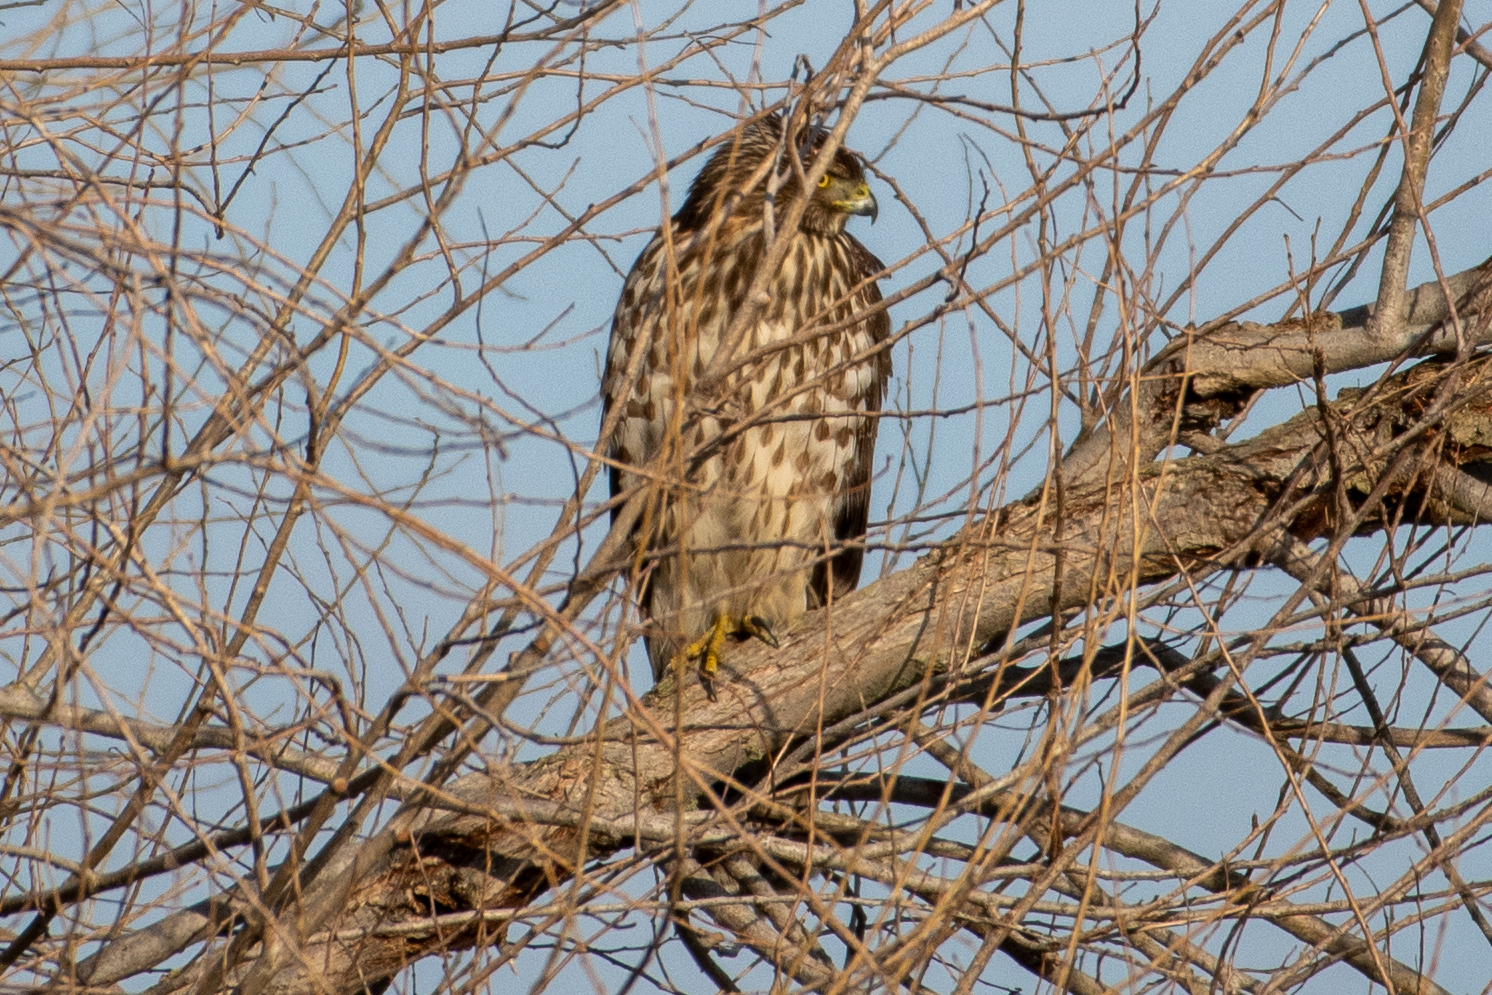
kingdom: Animalia
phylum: Chordata
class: Aves
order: Accipitriformes
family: Accipitridae
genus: Accipiter
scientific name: Accipiter cooperii
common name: Cooper's hawk
